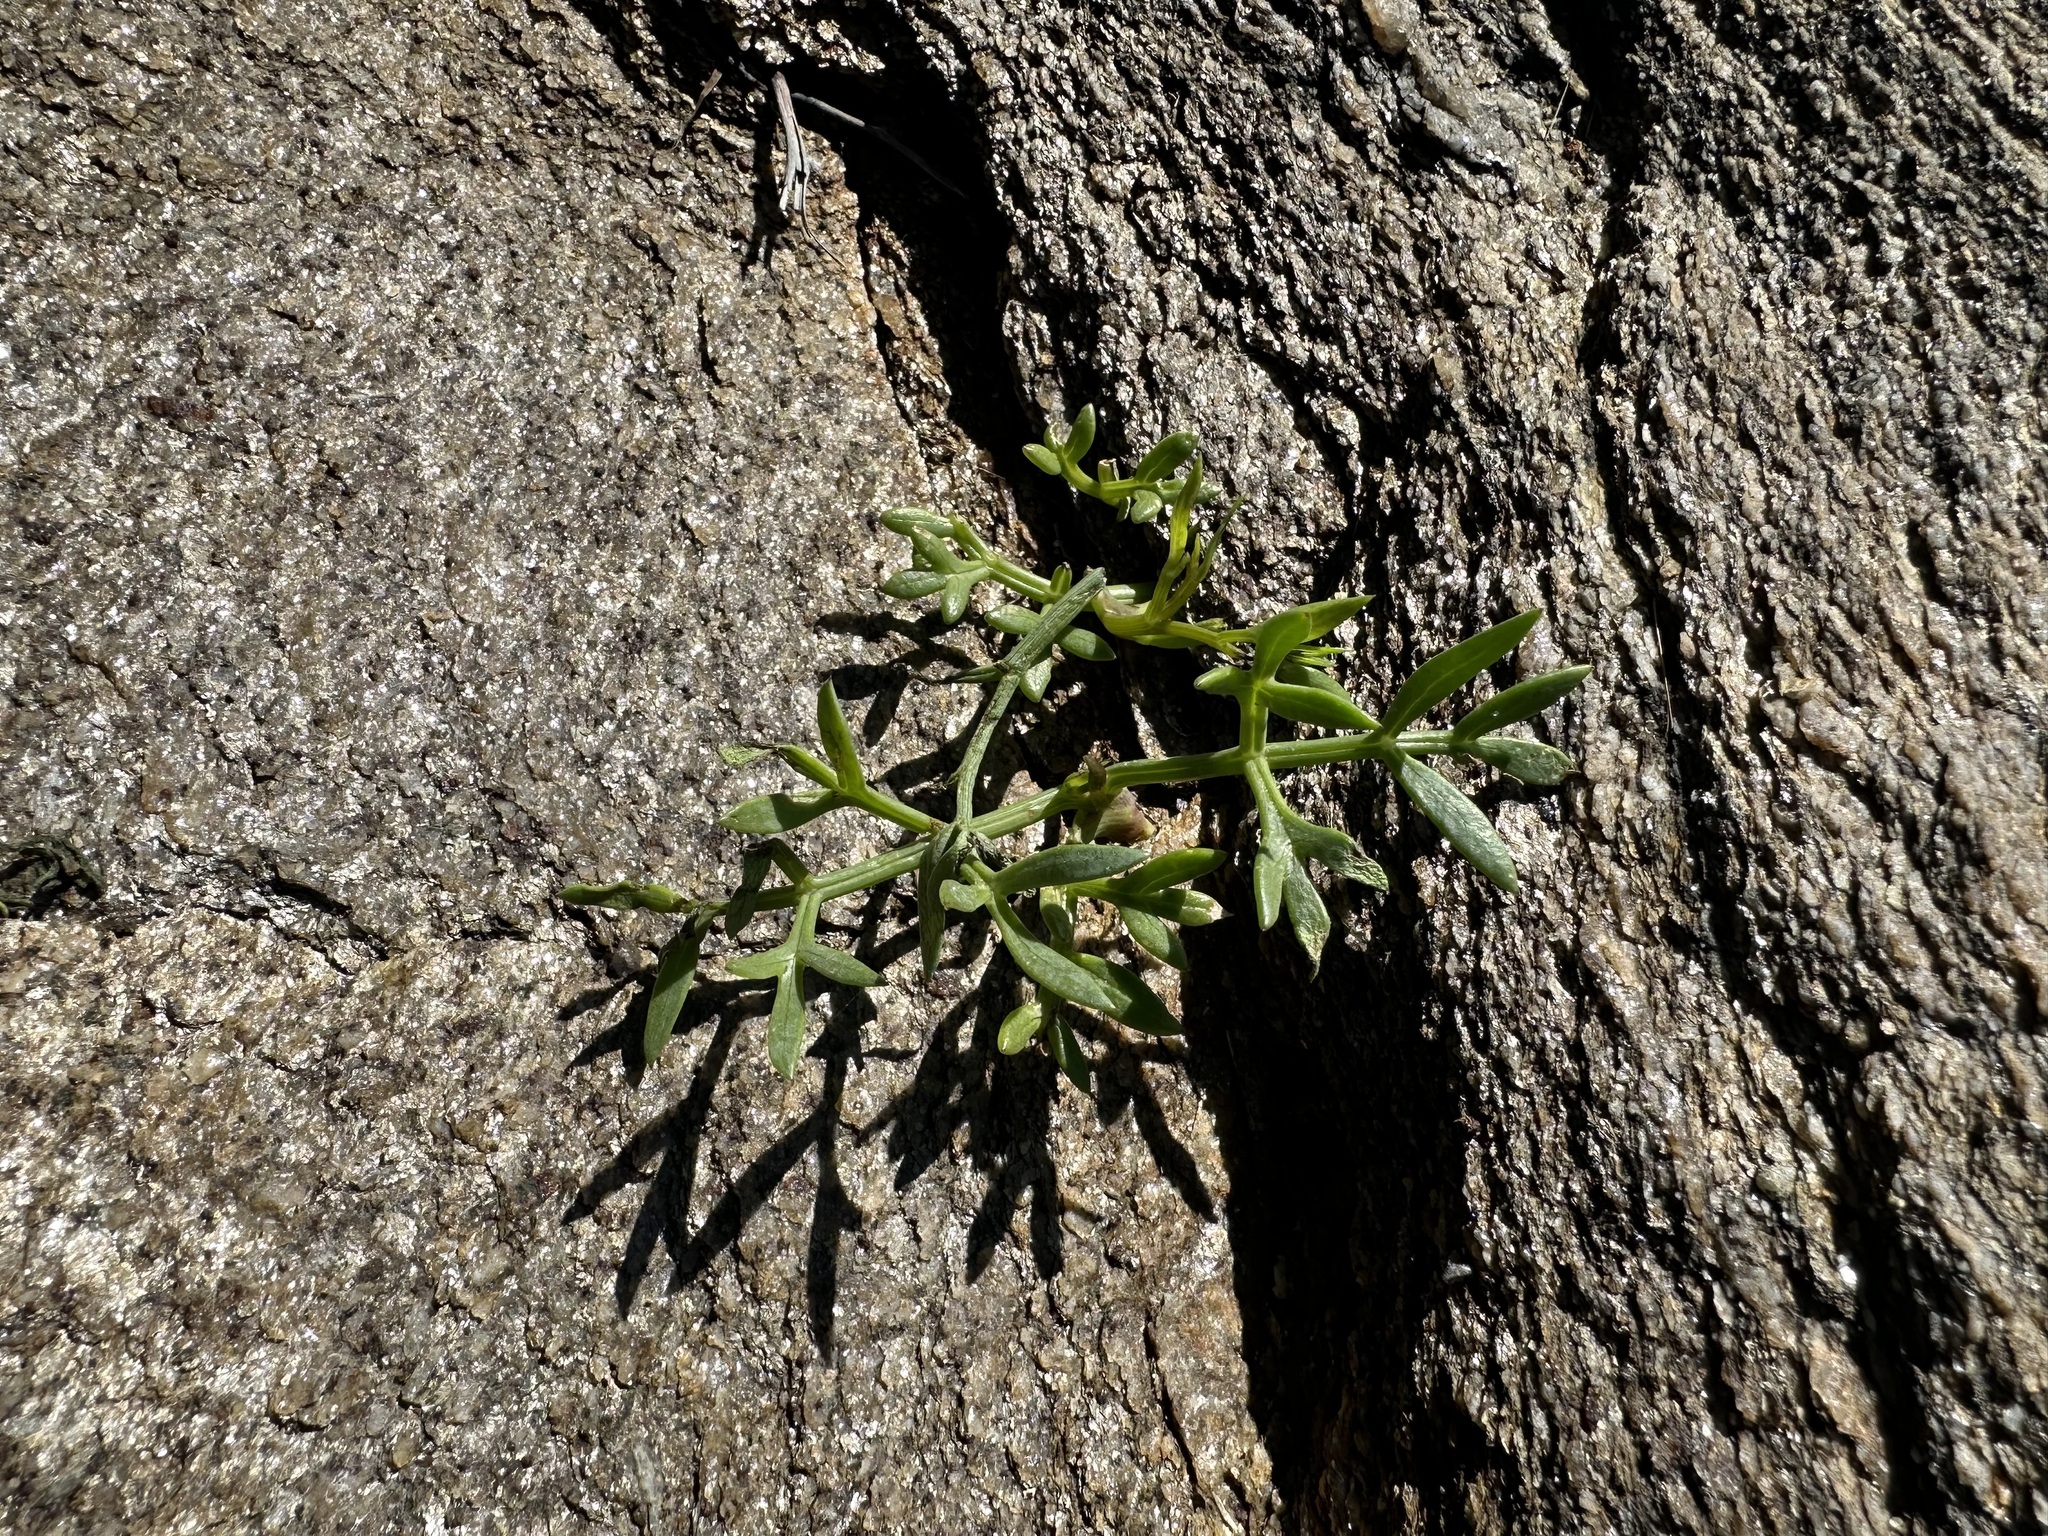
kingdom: Plantae
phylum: Tracheophyta
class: Magnoliopsida
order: Apiales
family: Apiaceae
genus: Crithmum
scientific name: Crithmum maritimum
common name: Rock samphire
